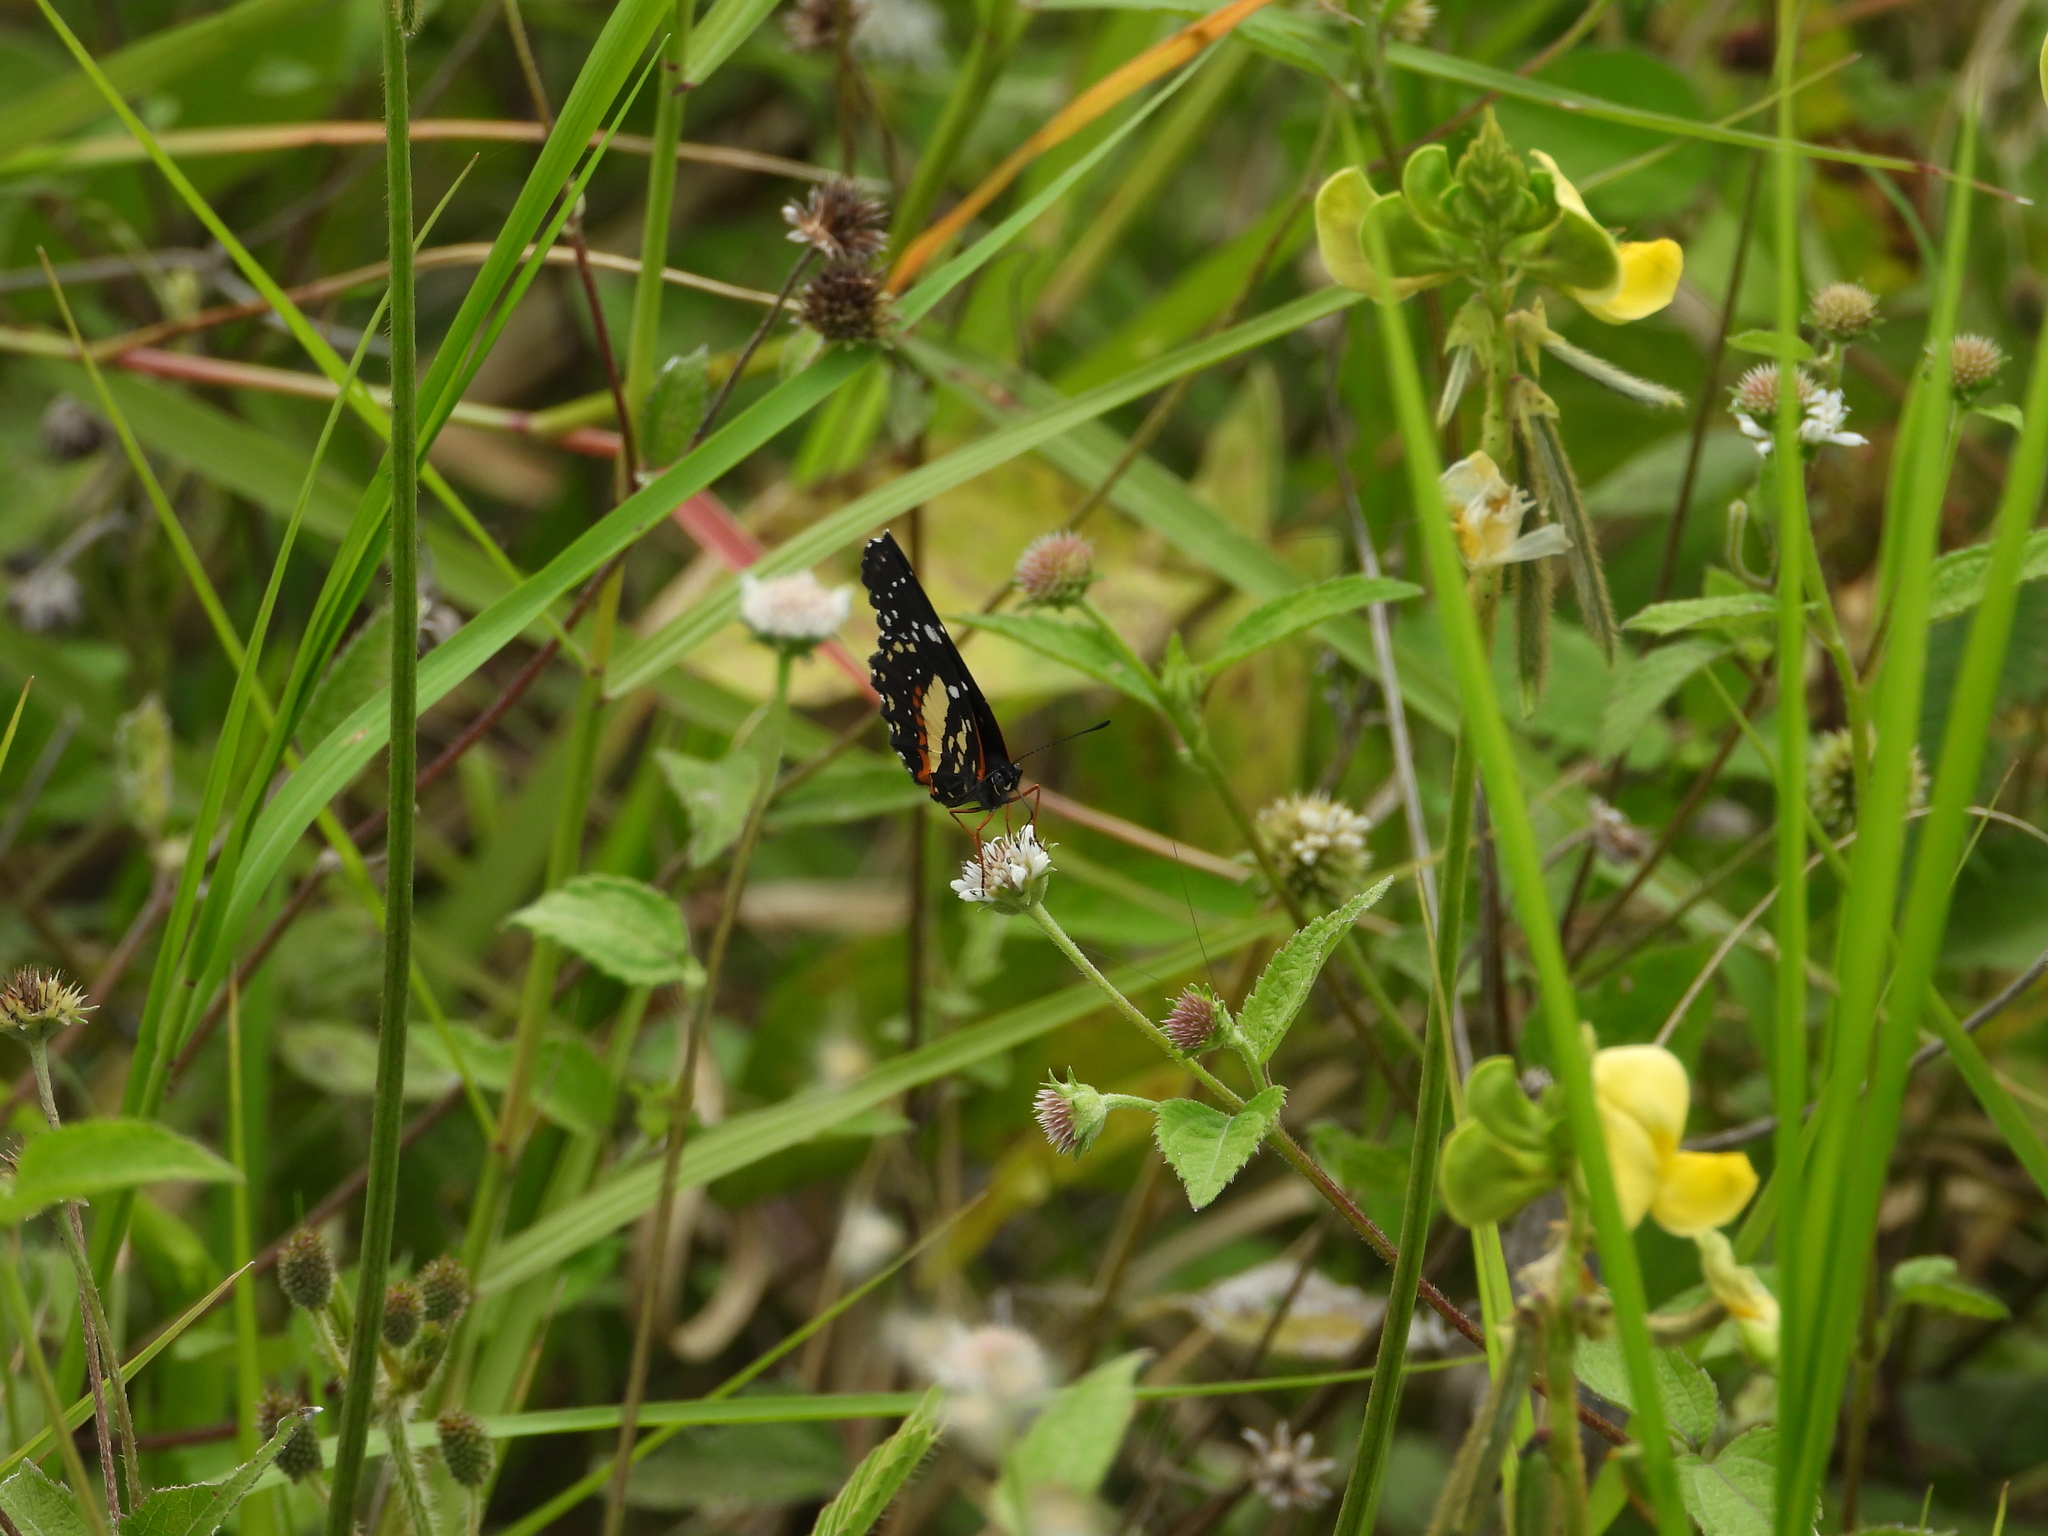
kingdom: Animalia
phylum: Arthropoda
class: Insecta
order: Lepidoptera
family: Nymphalidae
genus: Chlosyne
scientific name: Chlosyne lacinia
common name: Bordered patch
